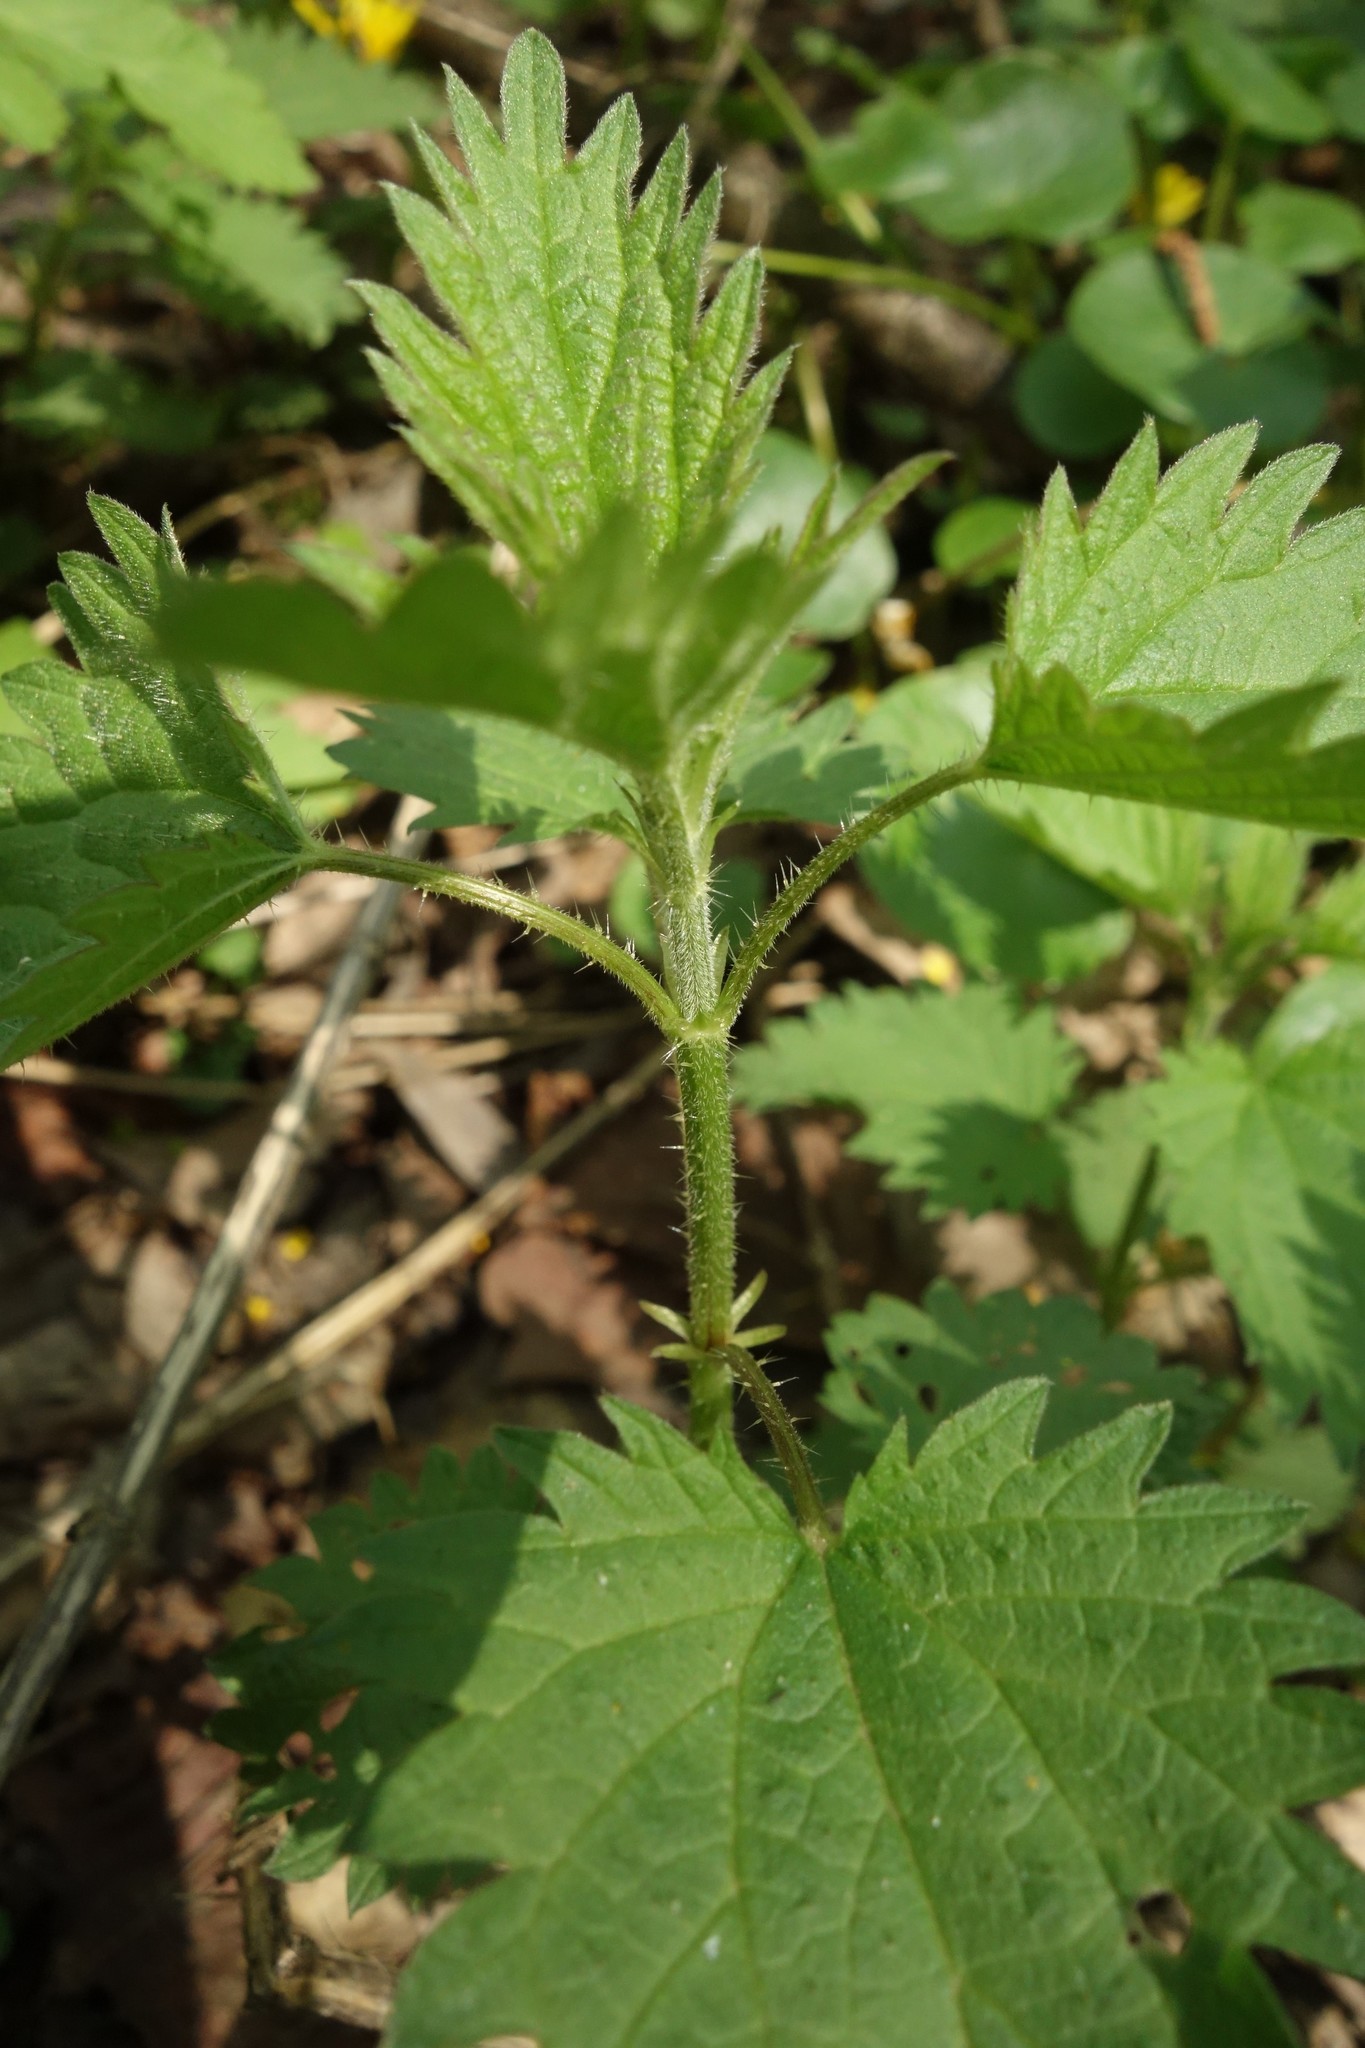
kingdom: Plantae
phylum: Tracheophyta
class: Magnoliopsida
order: Rosales
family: Urticaceae
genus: Urtica
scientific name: Urtica dioica
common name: Common nettle
